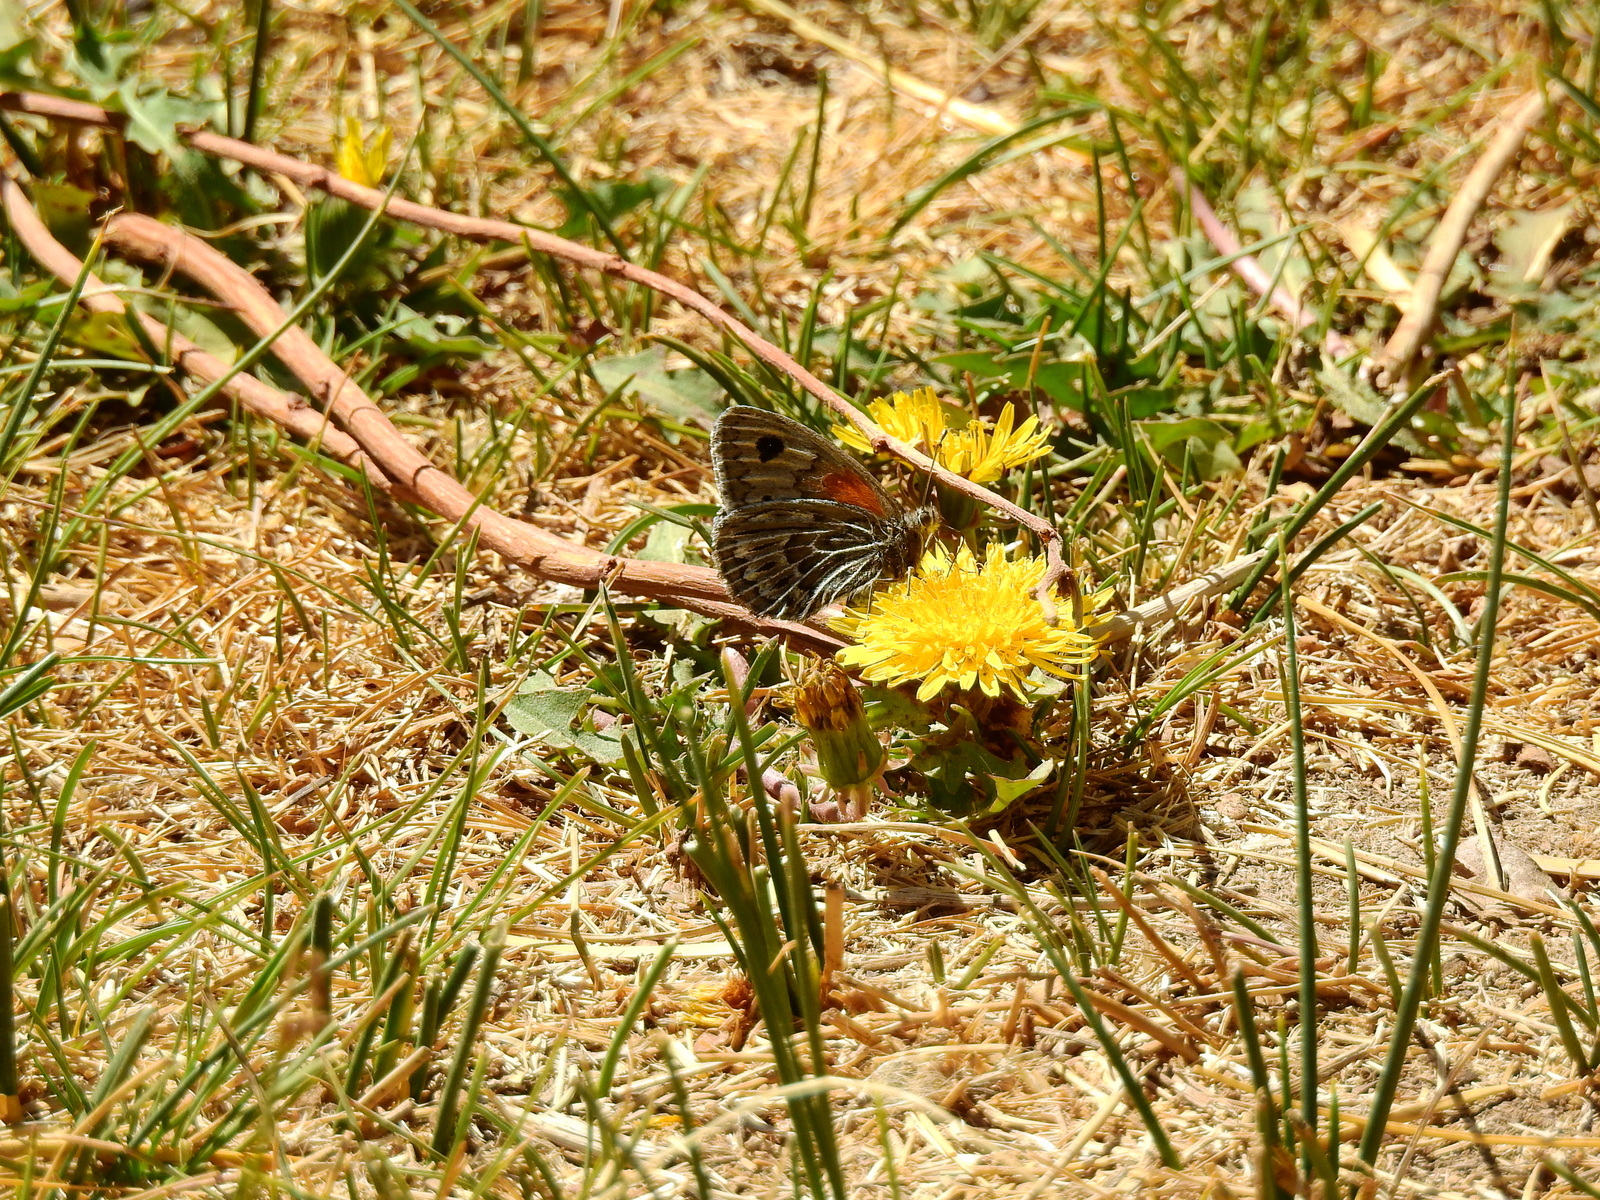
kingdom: Animalia
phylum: Arthropoda
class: Insecta
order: Lepidoptera
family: Nymphalidae
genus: Argyrophorus
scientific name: Argyrophorus argenteus
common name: Silver satyr
